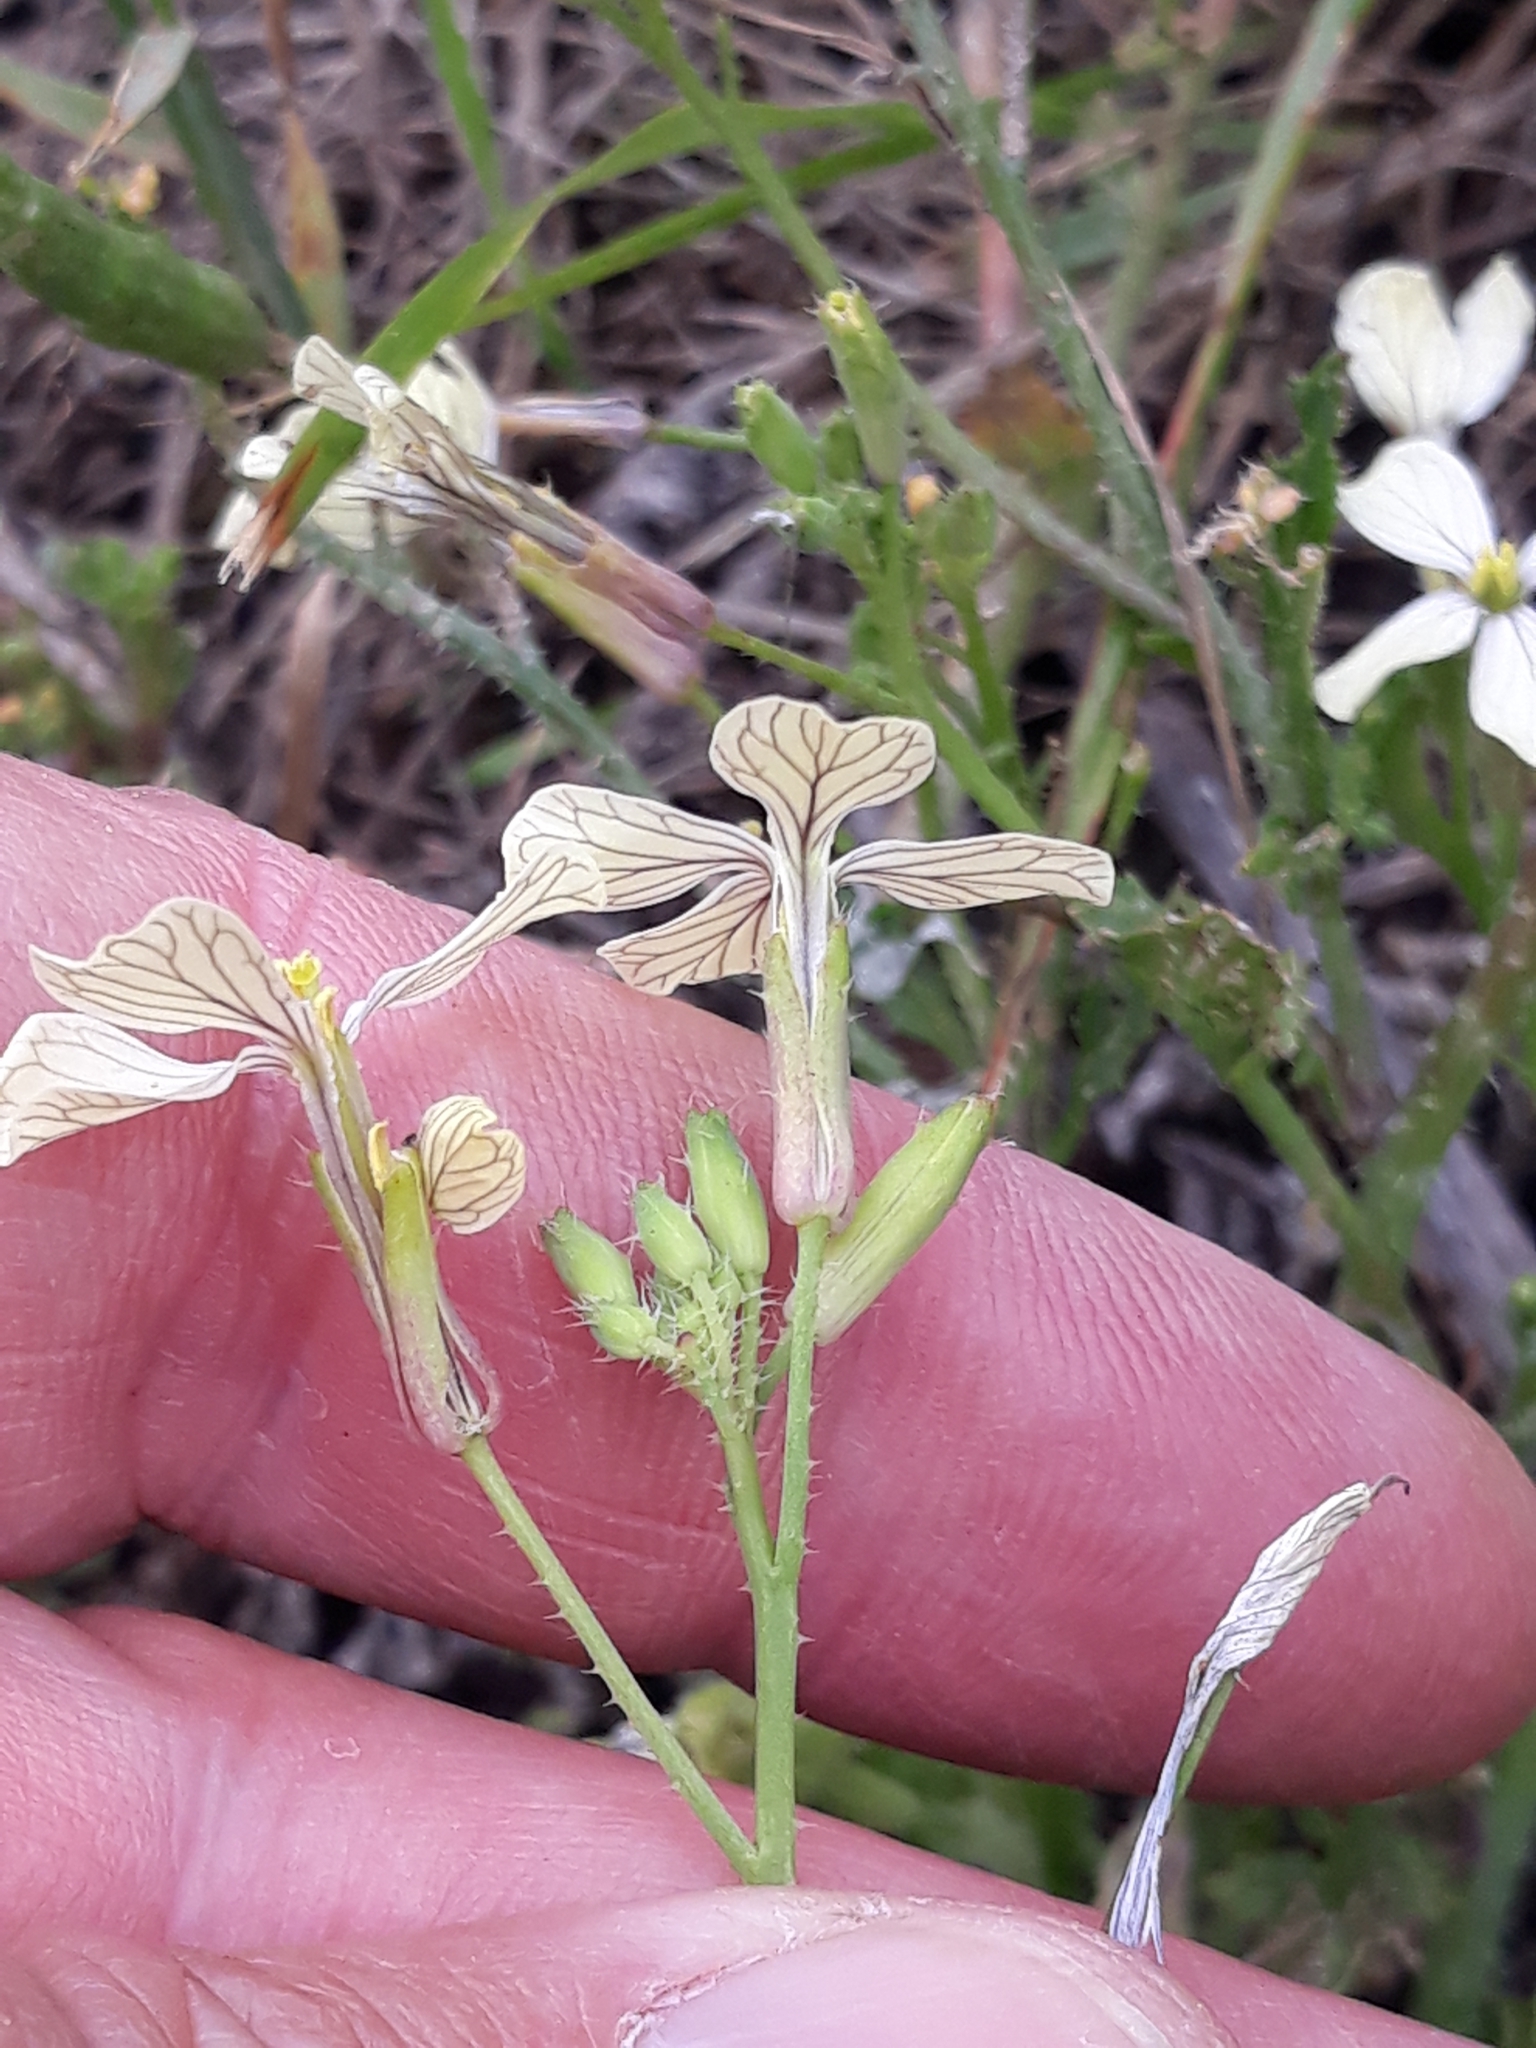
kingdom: Plantae
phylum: Tracheophyta
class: Magnoliopsida
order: Brassicales
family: Brassicaceae
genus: Raphanus
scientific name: Raphanus raphanistrum
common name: Wild radish
